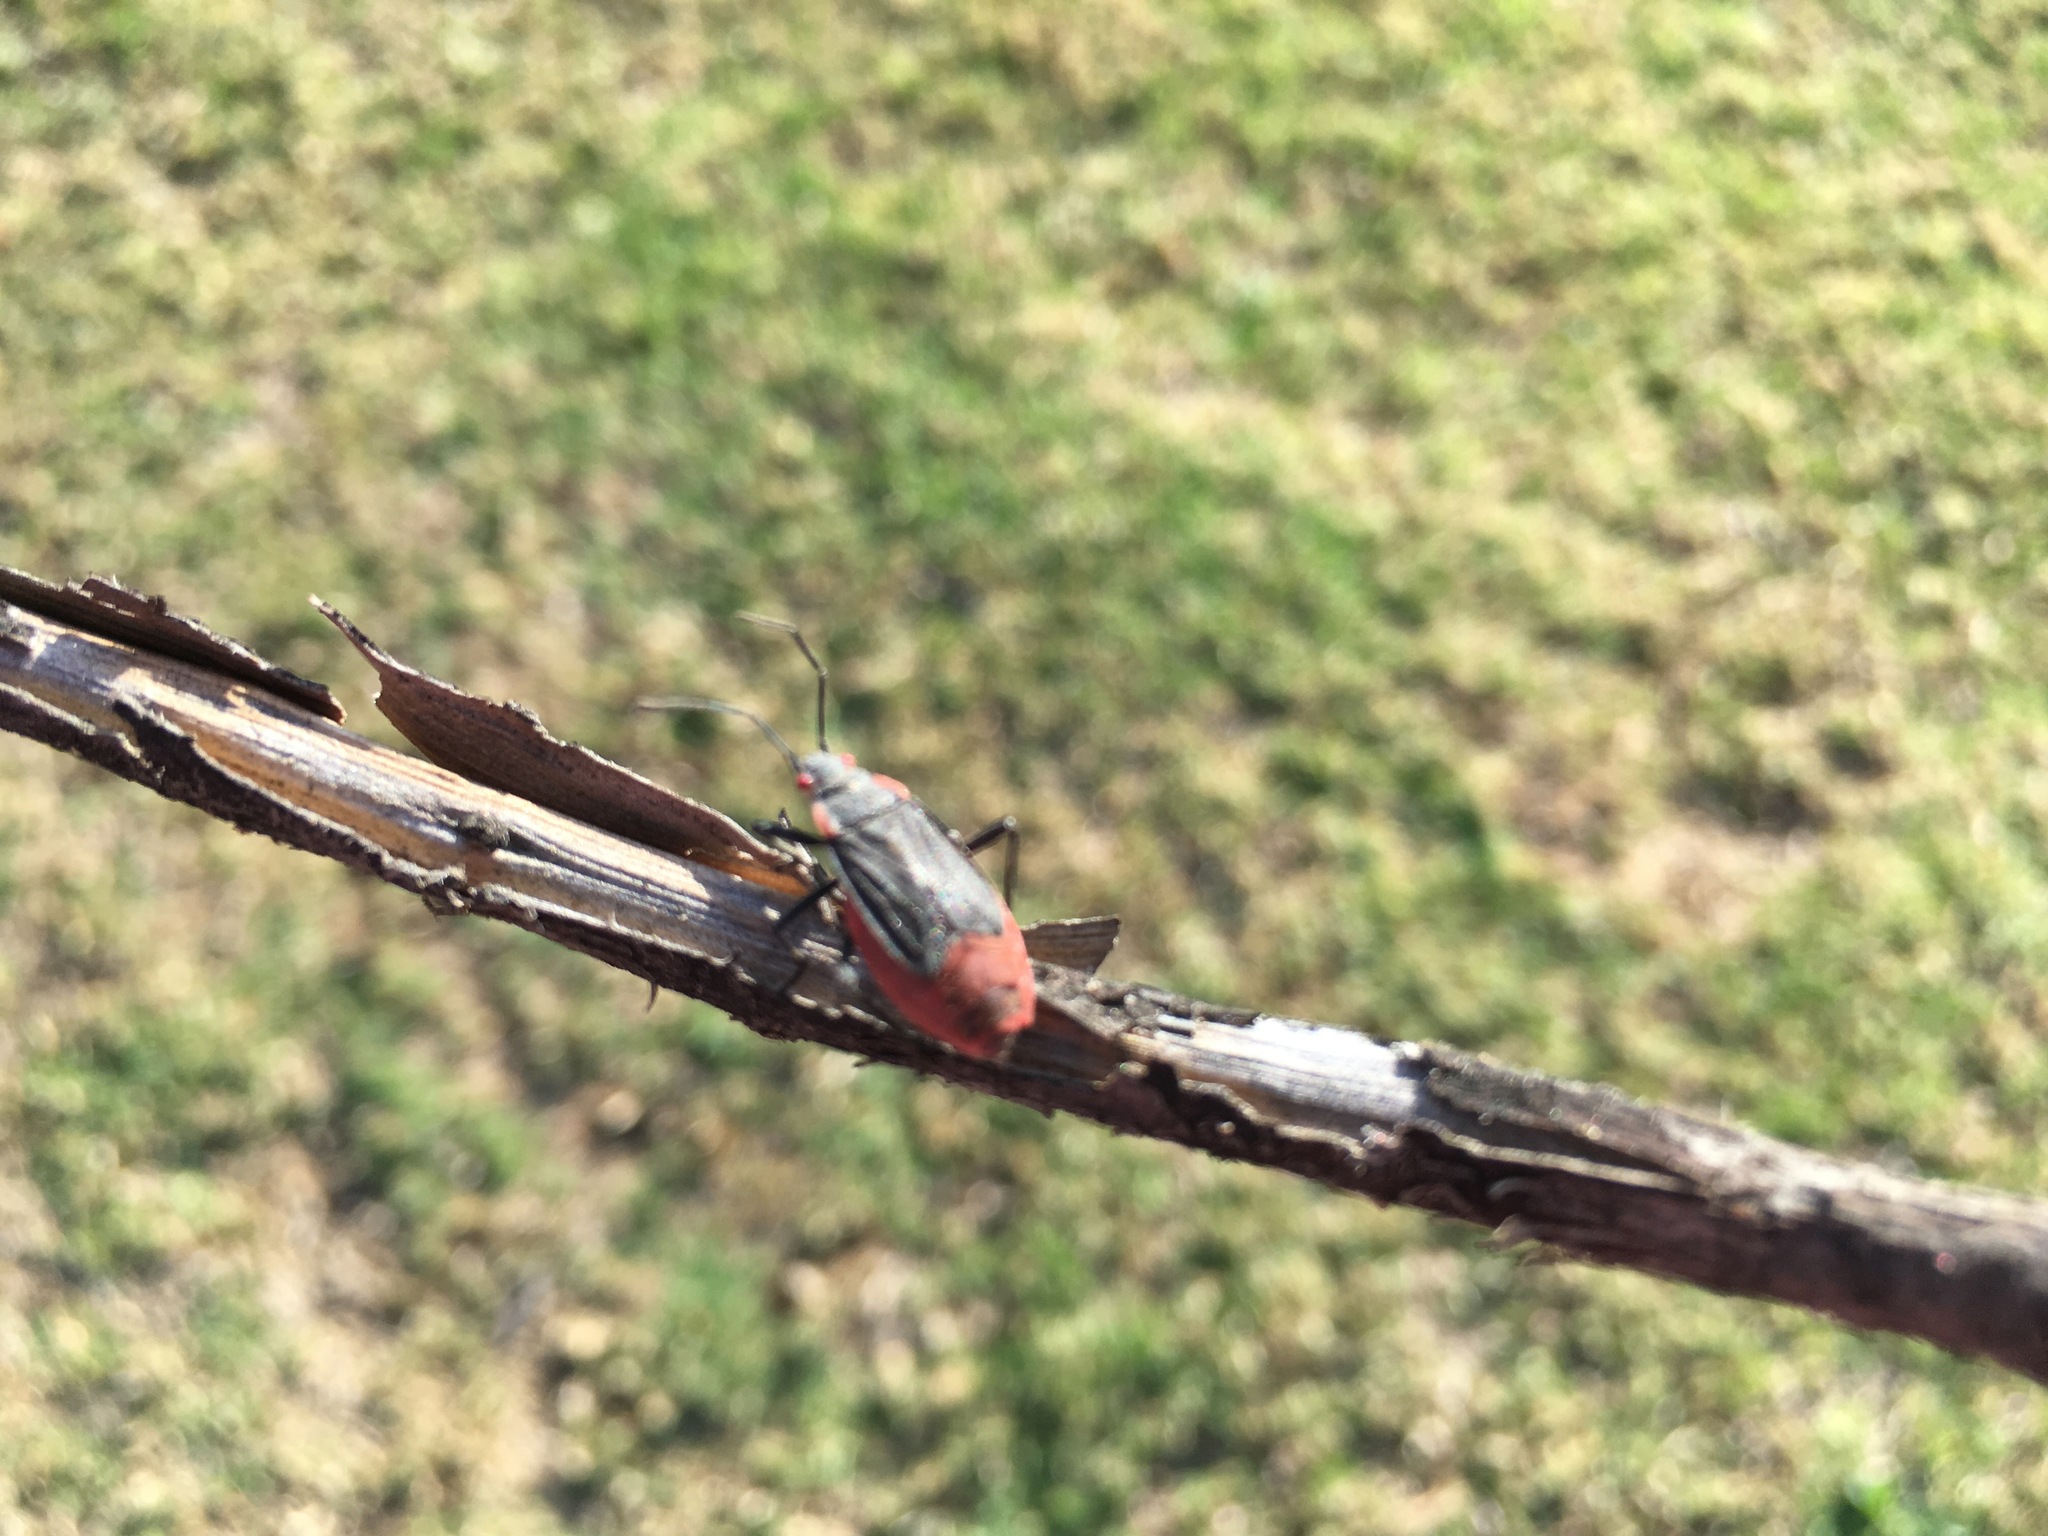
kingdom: Animalia
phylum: Arthropoda
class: Insecta
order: Hemiptera
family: Rhopalidae
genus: Jadera
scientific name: Jadera haematoloma
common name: Red-shouldered bug
